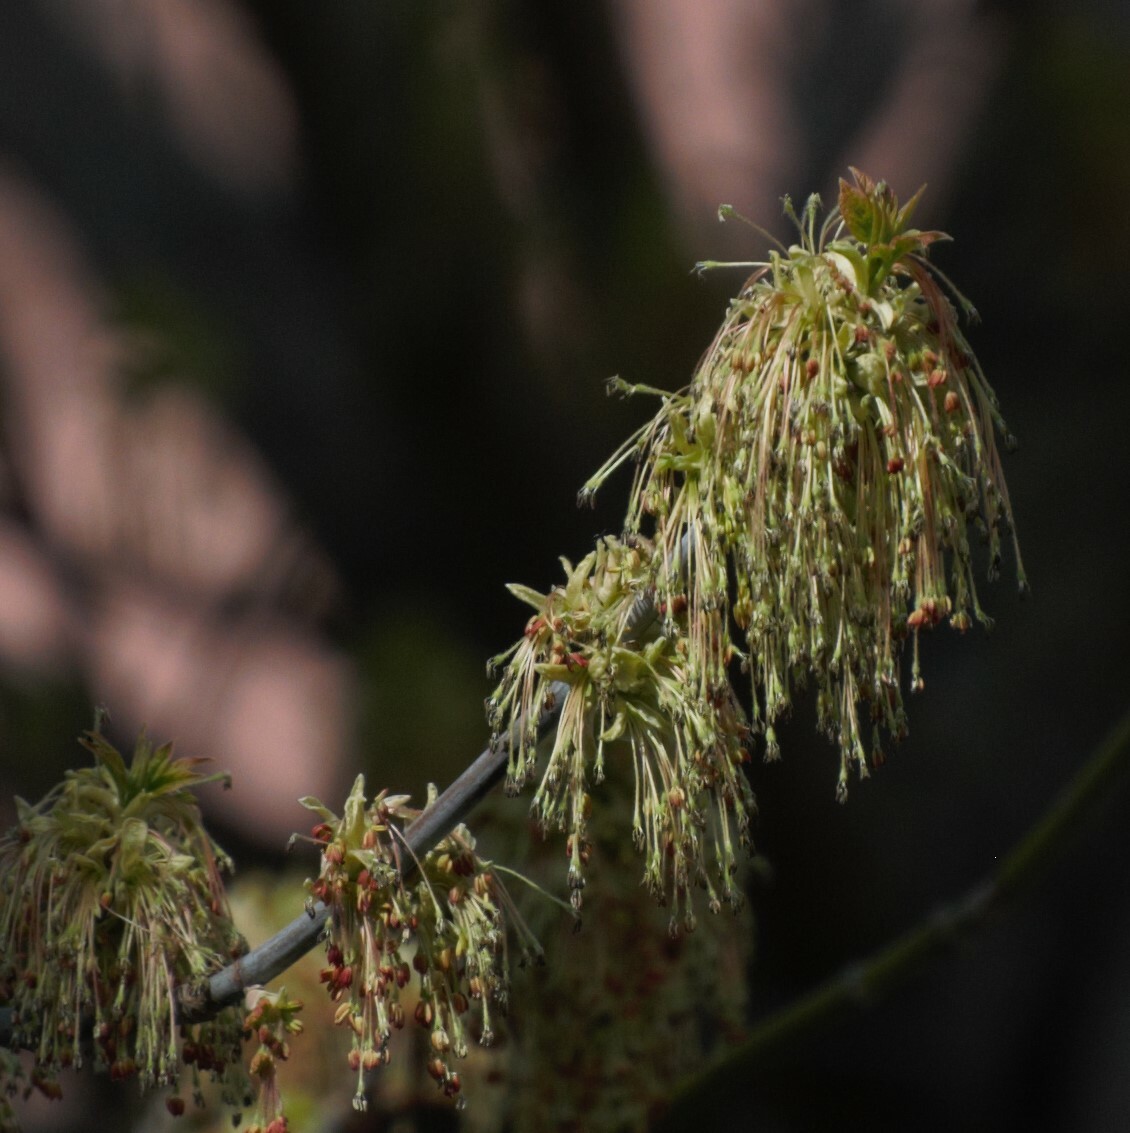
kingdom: Plantae
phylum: Tracheophyta
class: Magnoliopsida
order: Sapindales
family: Sapindaceae
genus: Acer
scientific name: Acer negundo
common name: Ashleaf maple
